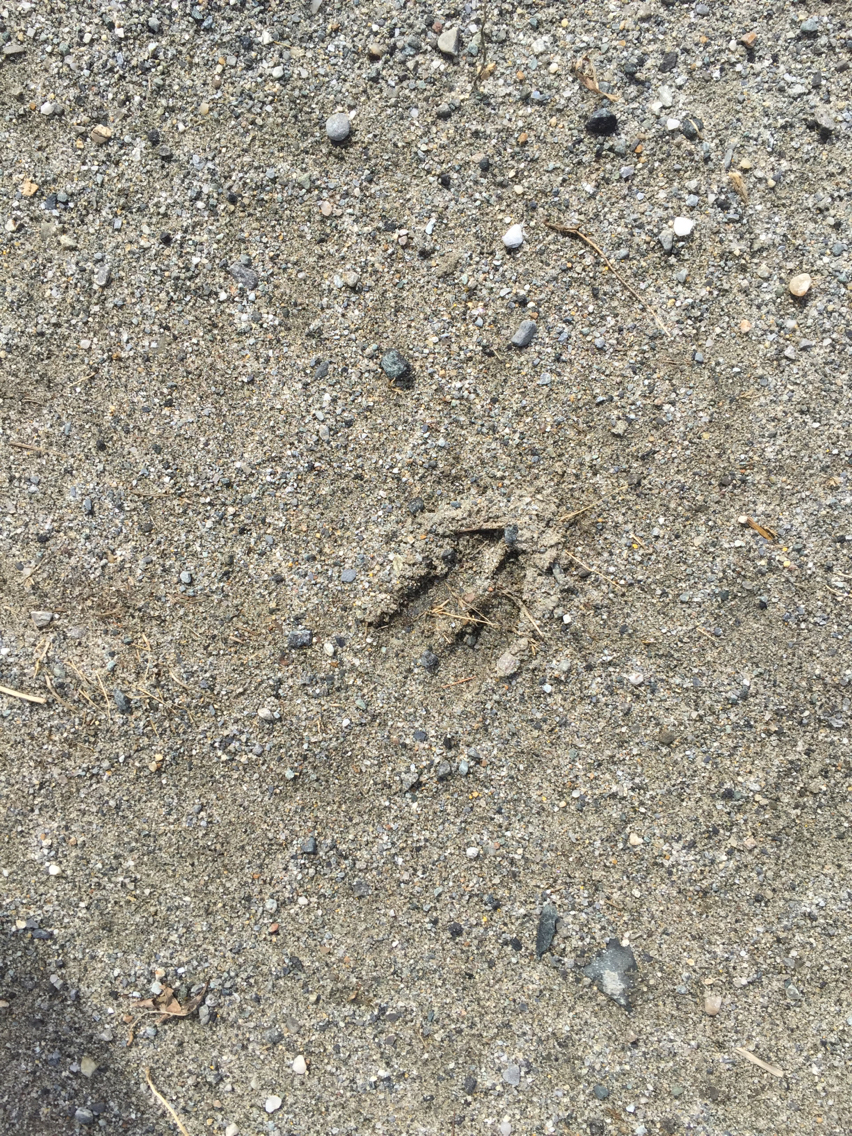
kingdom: Animalia
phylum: Chordata
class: Mammalia
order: Artiodactyla
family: Cervidae
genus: Odocoileus
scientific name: Odocoileus virginianus
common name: White-tailed deer
